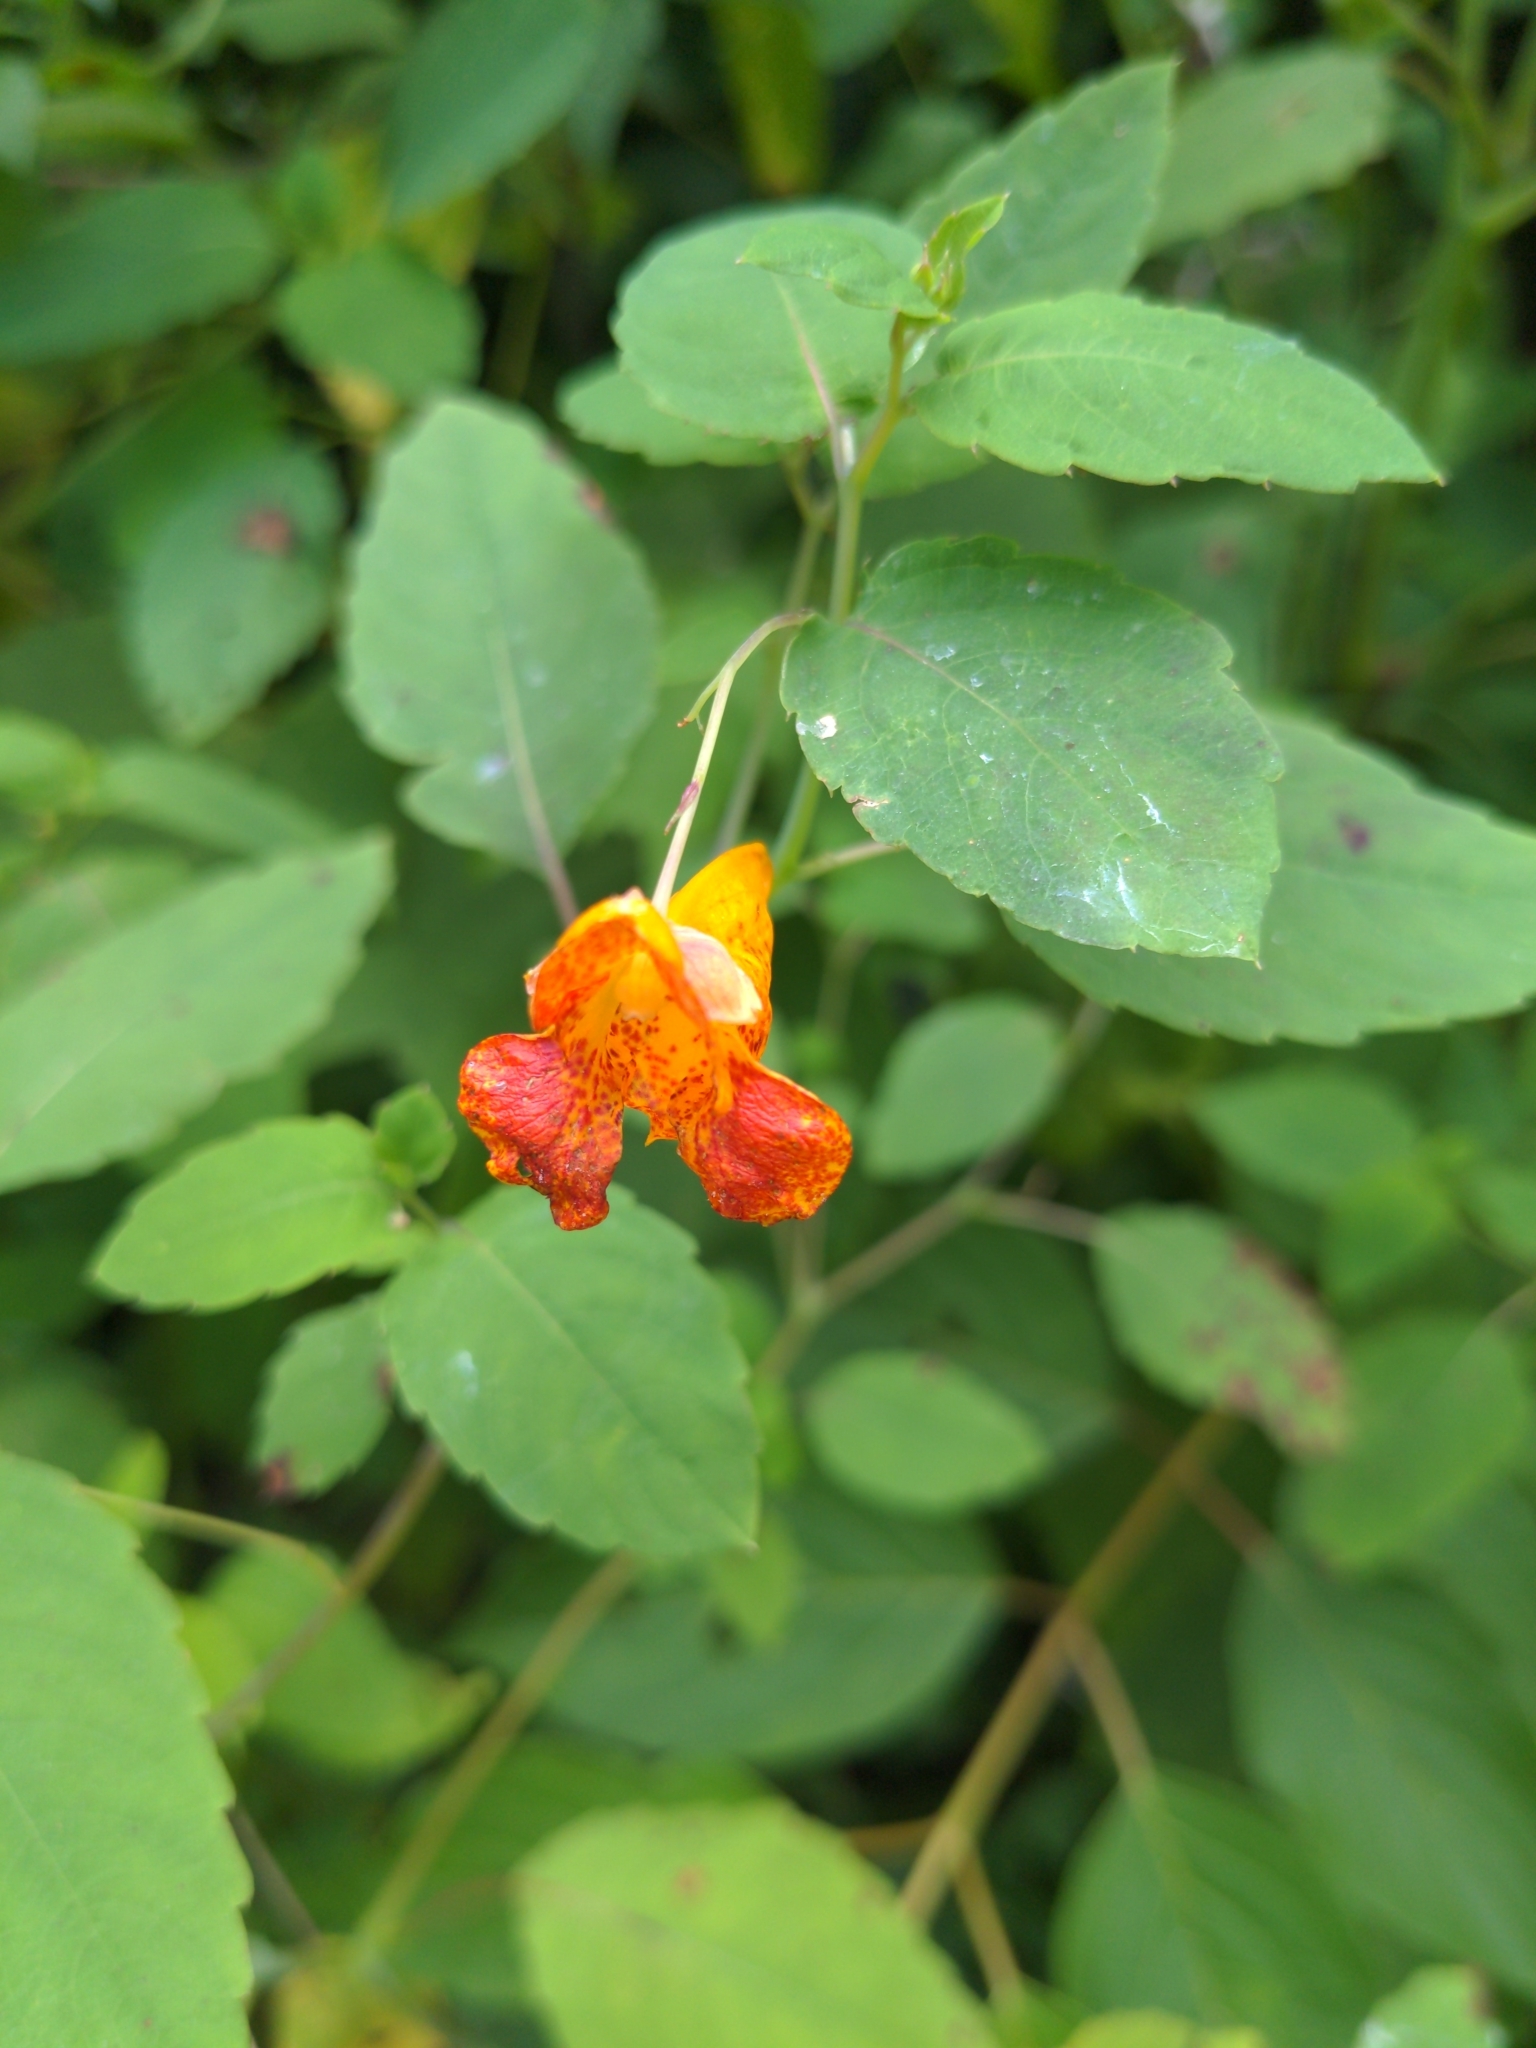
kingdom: Plantae
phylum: Tracheophyta
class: Magnoliopsida
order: Ericales
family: Balsaminaceae
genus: Impatiens
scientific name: Impatiens capensis
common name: Orange balsam
